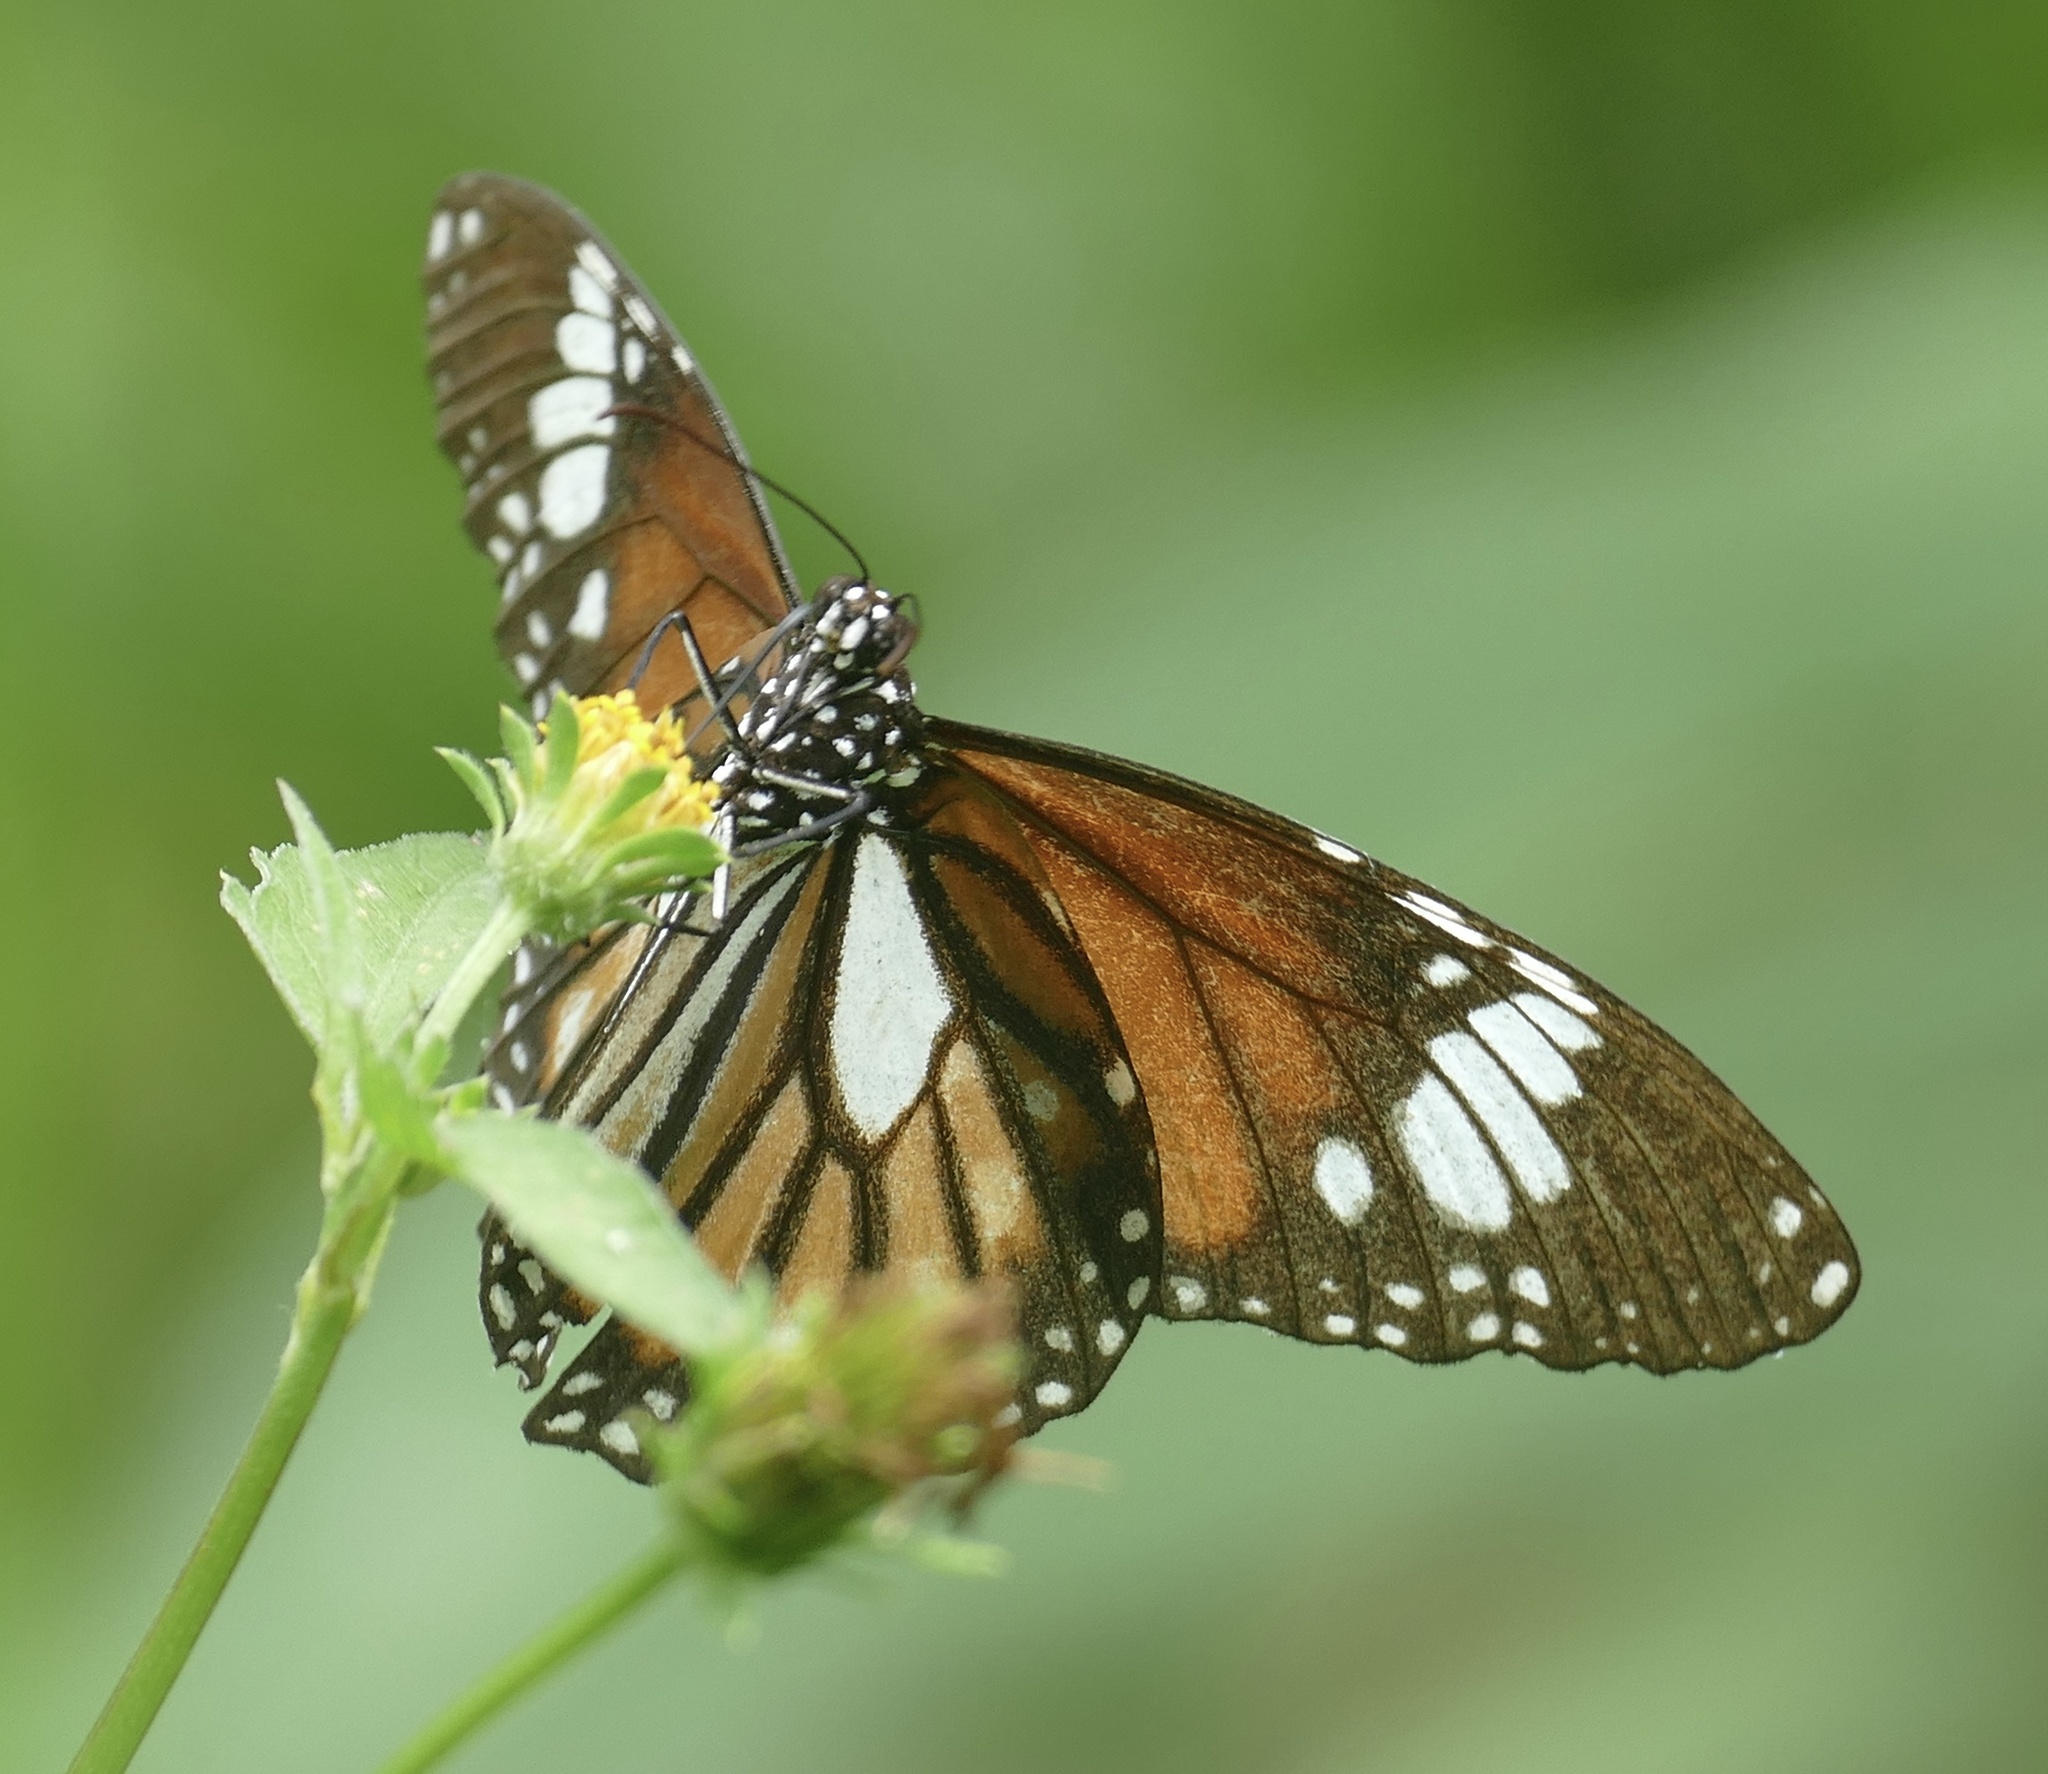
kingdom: Animalia
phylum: Arthropoda
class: Insecta
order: Lepidoptera
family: Nymphalidae
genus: Danaus
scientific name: Danaus genutia
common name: Common tiger butterfly
